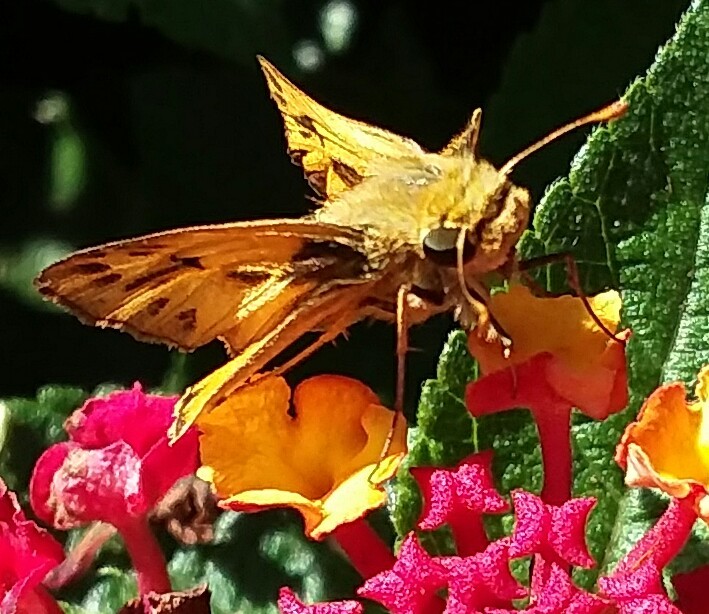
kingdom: Animalia
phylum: Arthropoda
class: Insecta
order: Lepidoptera
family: Hesperiidae
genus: Hylephila
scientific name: Hylephila phyleus
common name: Fiery skipper
